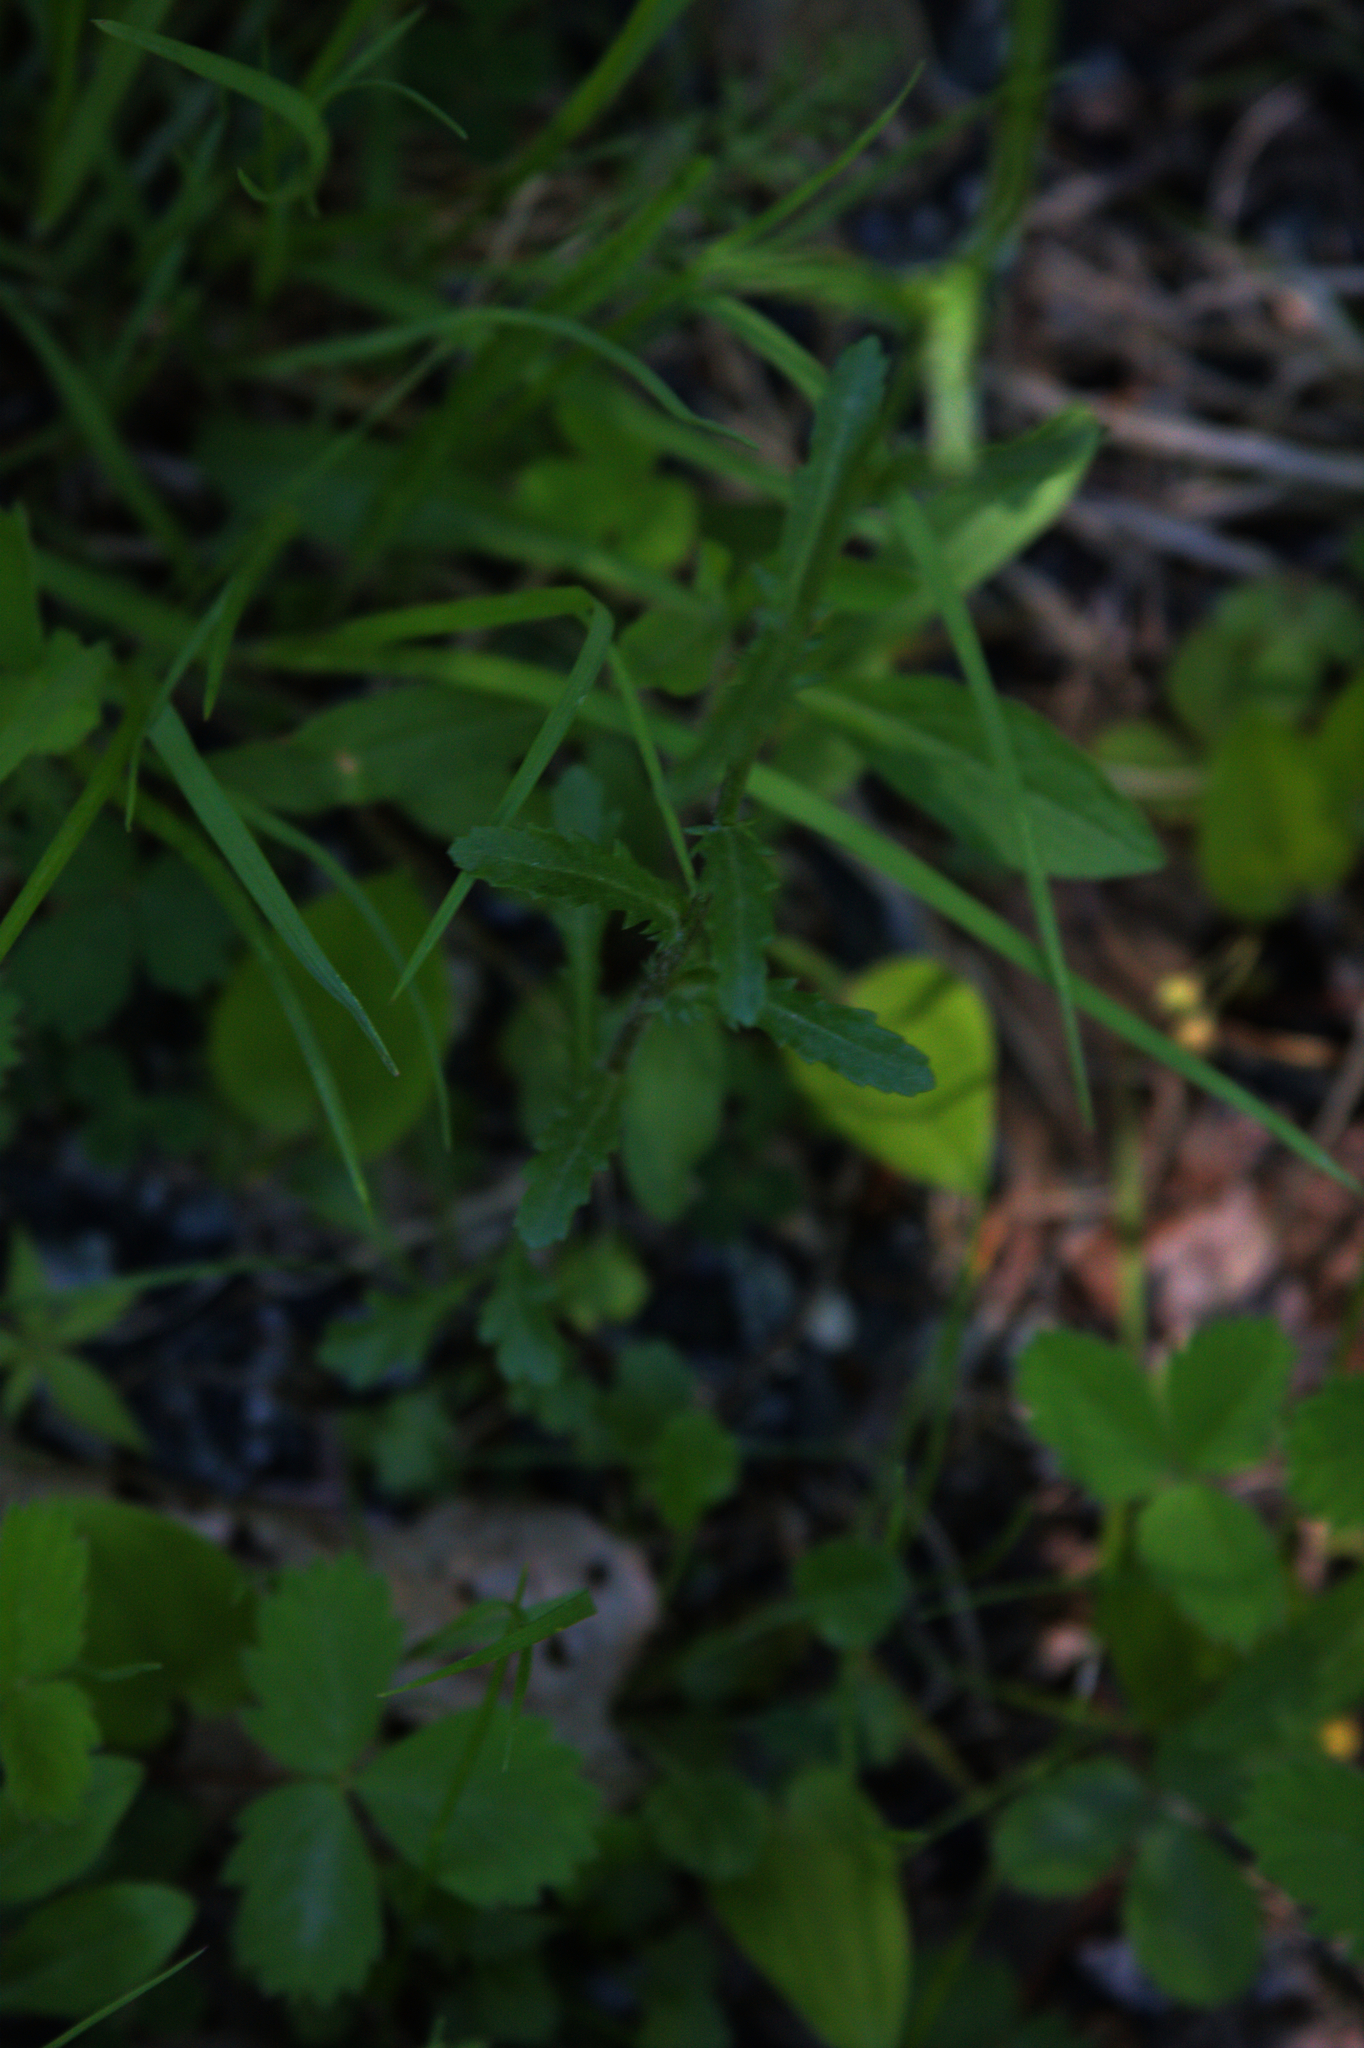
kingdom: Plantae
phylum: Tracheophyta
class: Magnoliopsida
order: Asterales
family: Asteraceae
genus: Leucanthemum
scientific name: Leucanthemum vulgare
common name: Oxeye daisy
